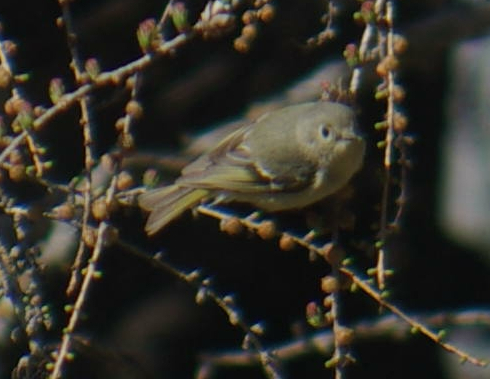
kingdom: Animalia
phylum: Chordata
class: Aves
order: Passeriformes
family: Regulidae
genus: Regulus
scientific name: Regulus calendula
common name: Ruby-crowned kinglet
